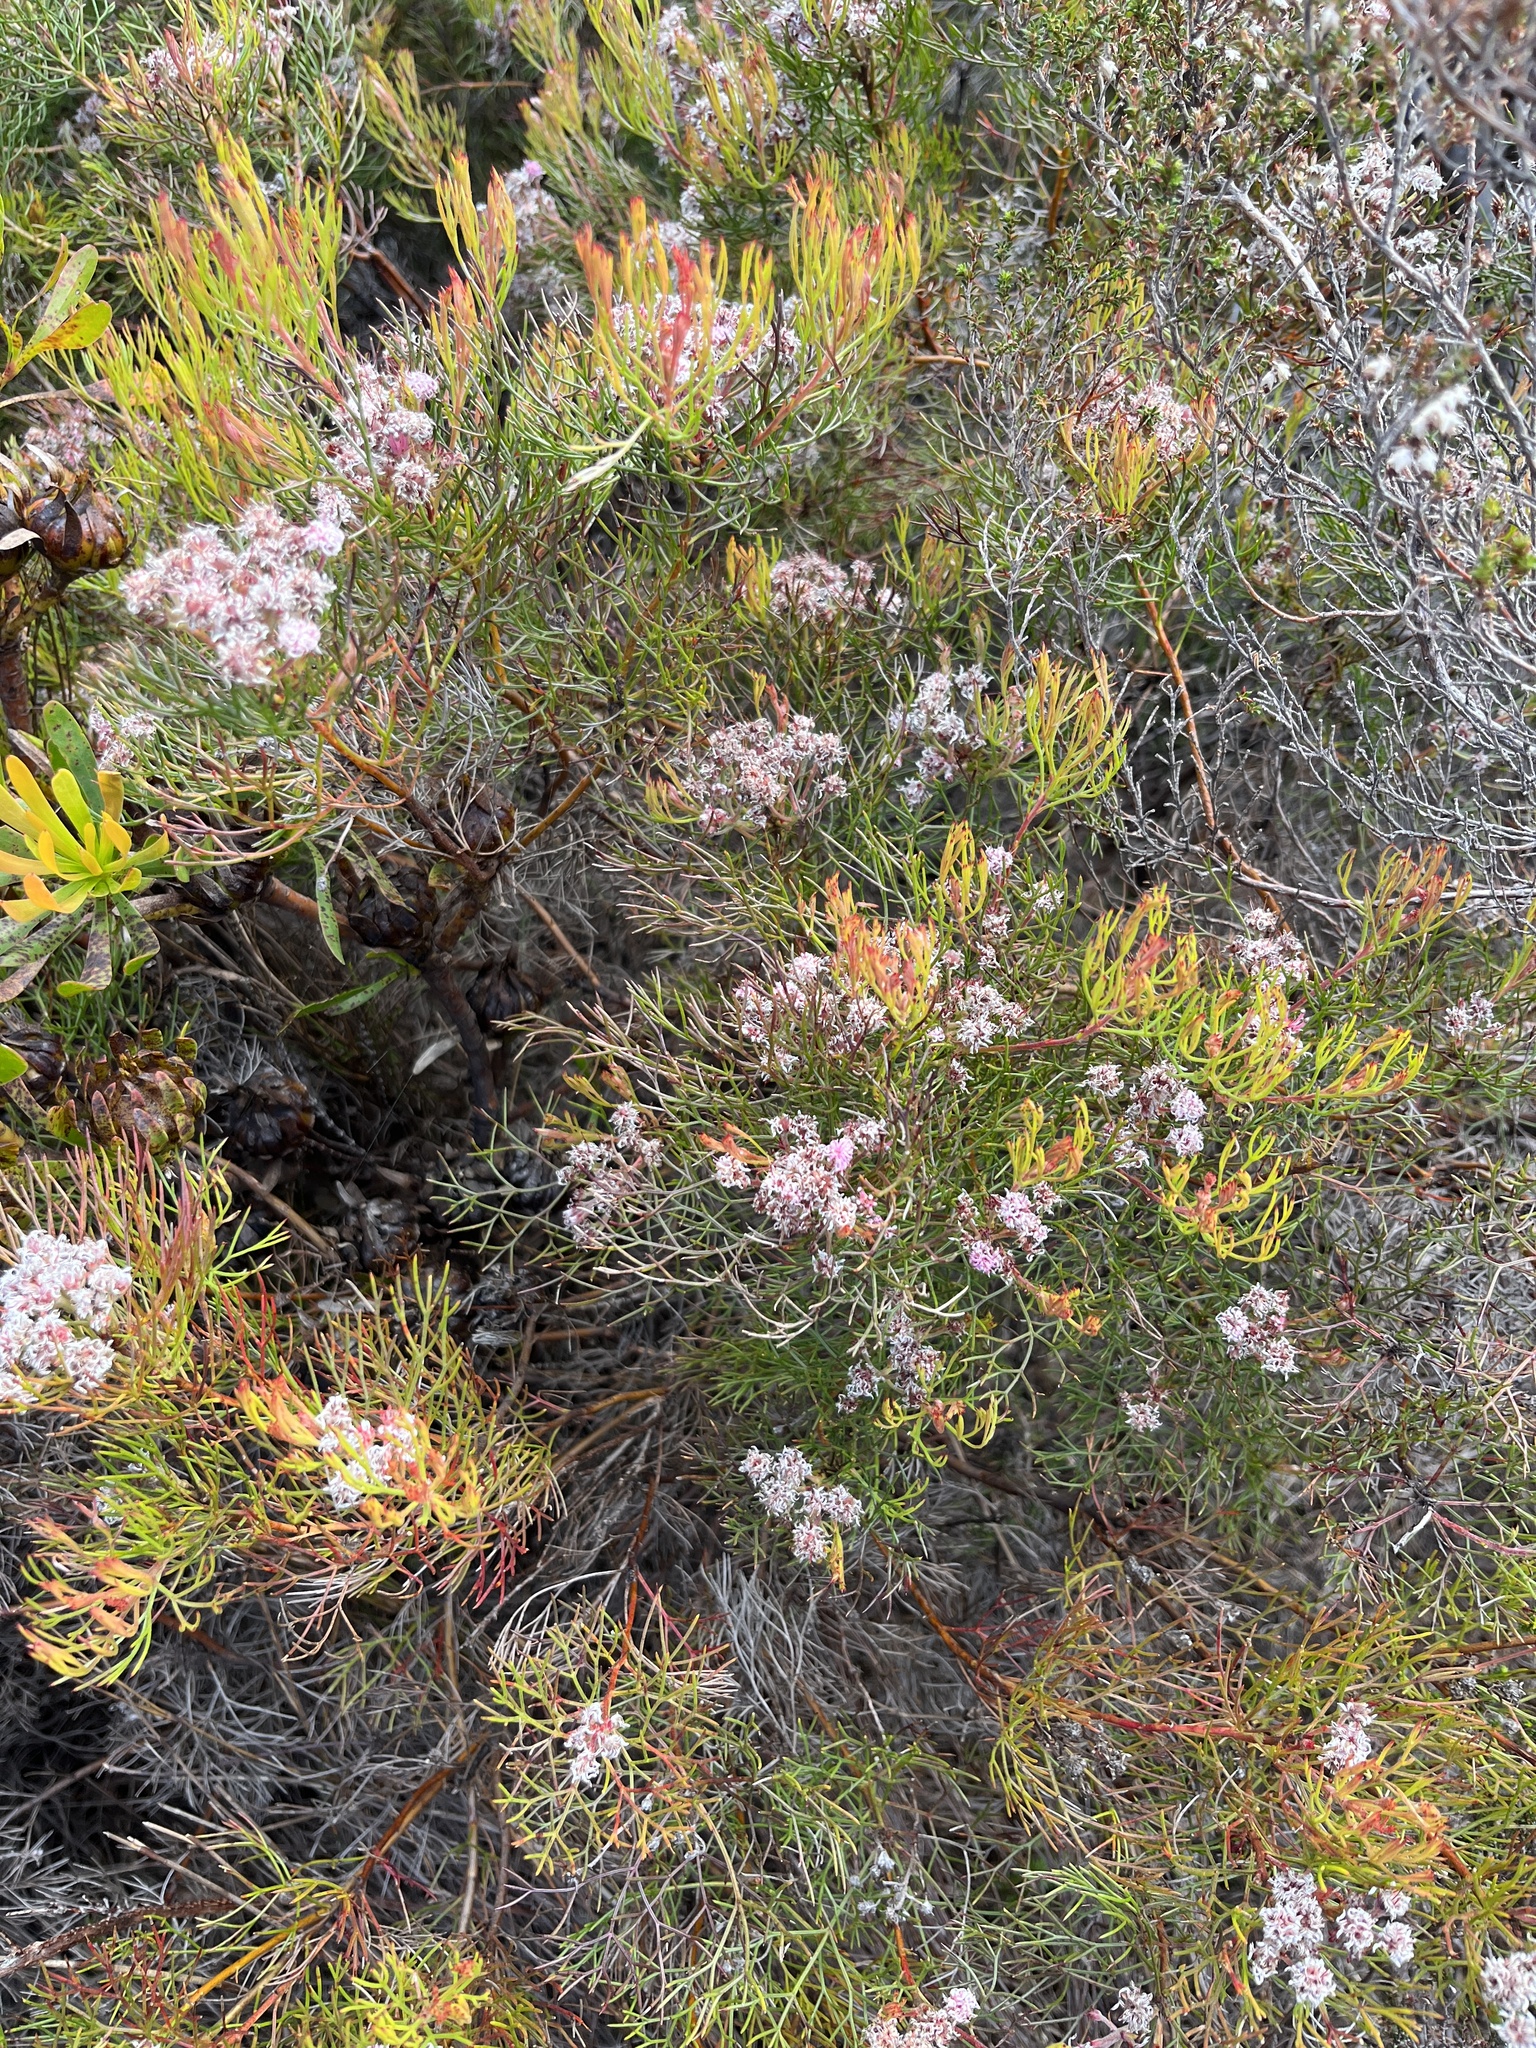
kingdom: Plantae
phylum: Tracheophyta
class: Magnoliopsida
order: Proteales
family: Proteaceae
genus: Serruria
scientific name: Serruria fasciflora
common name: Common pin spiderhead
